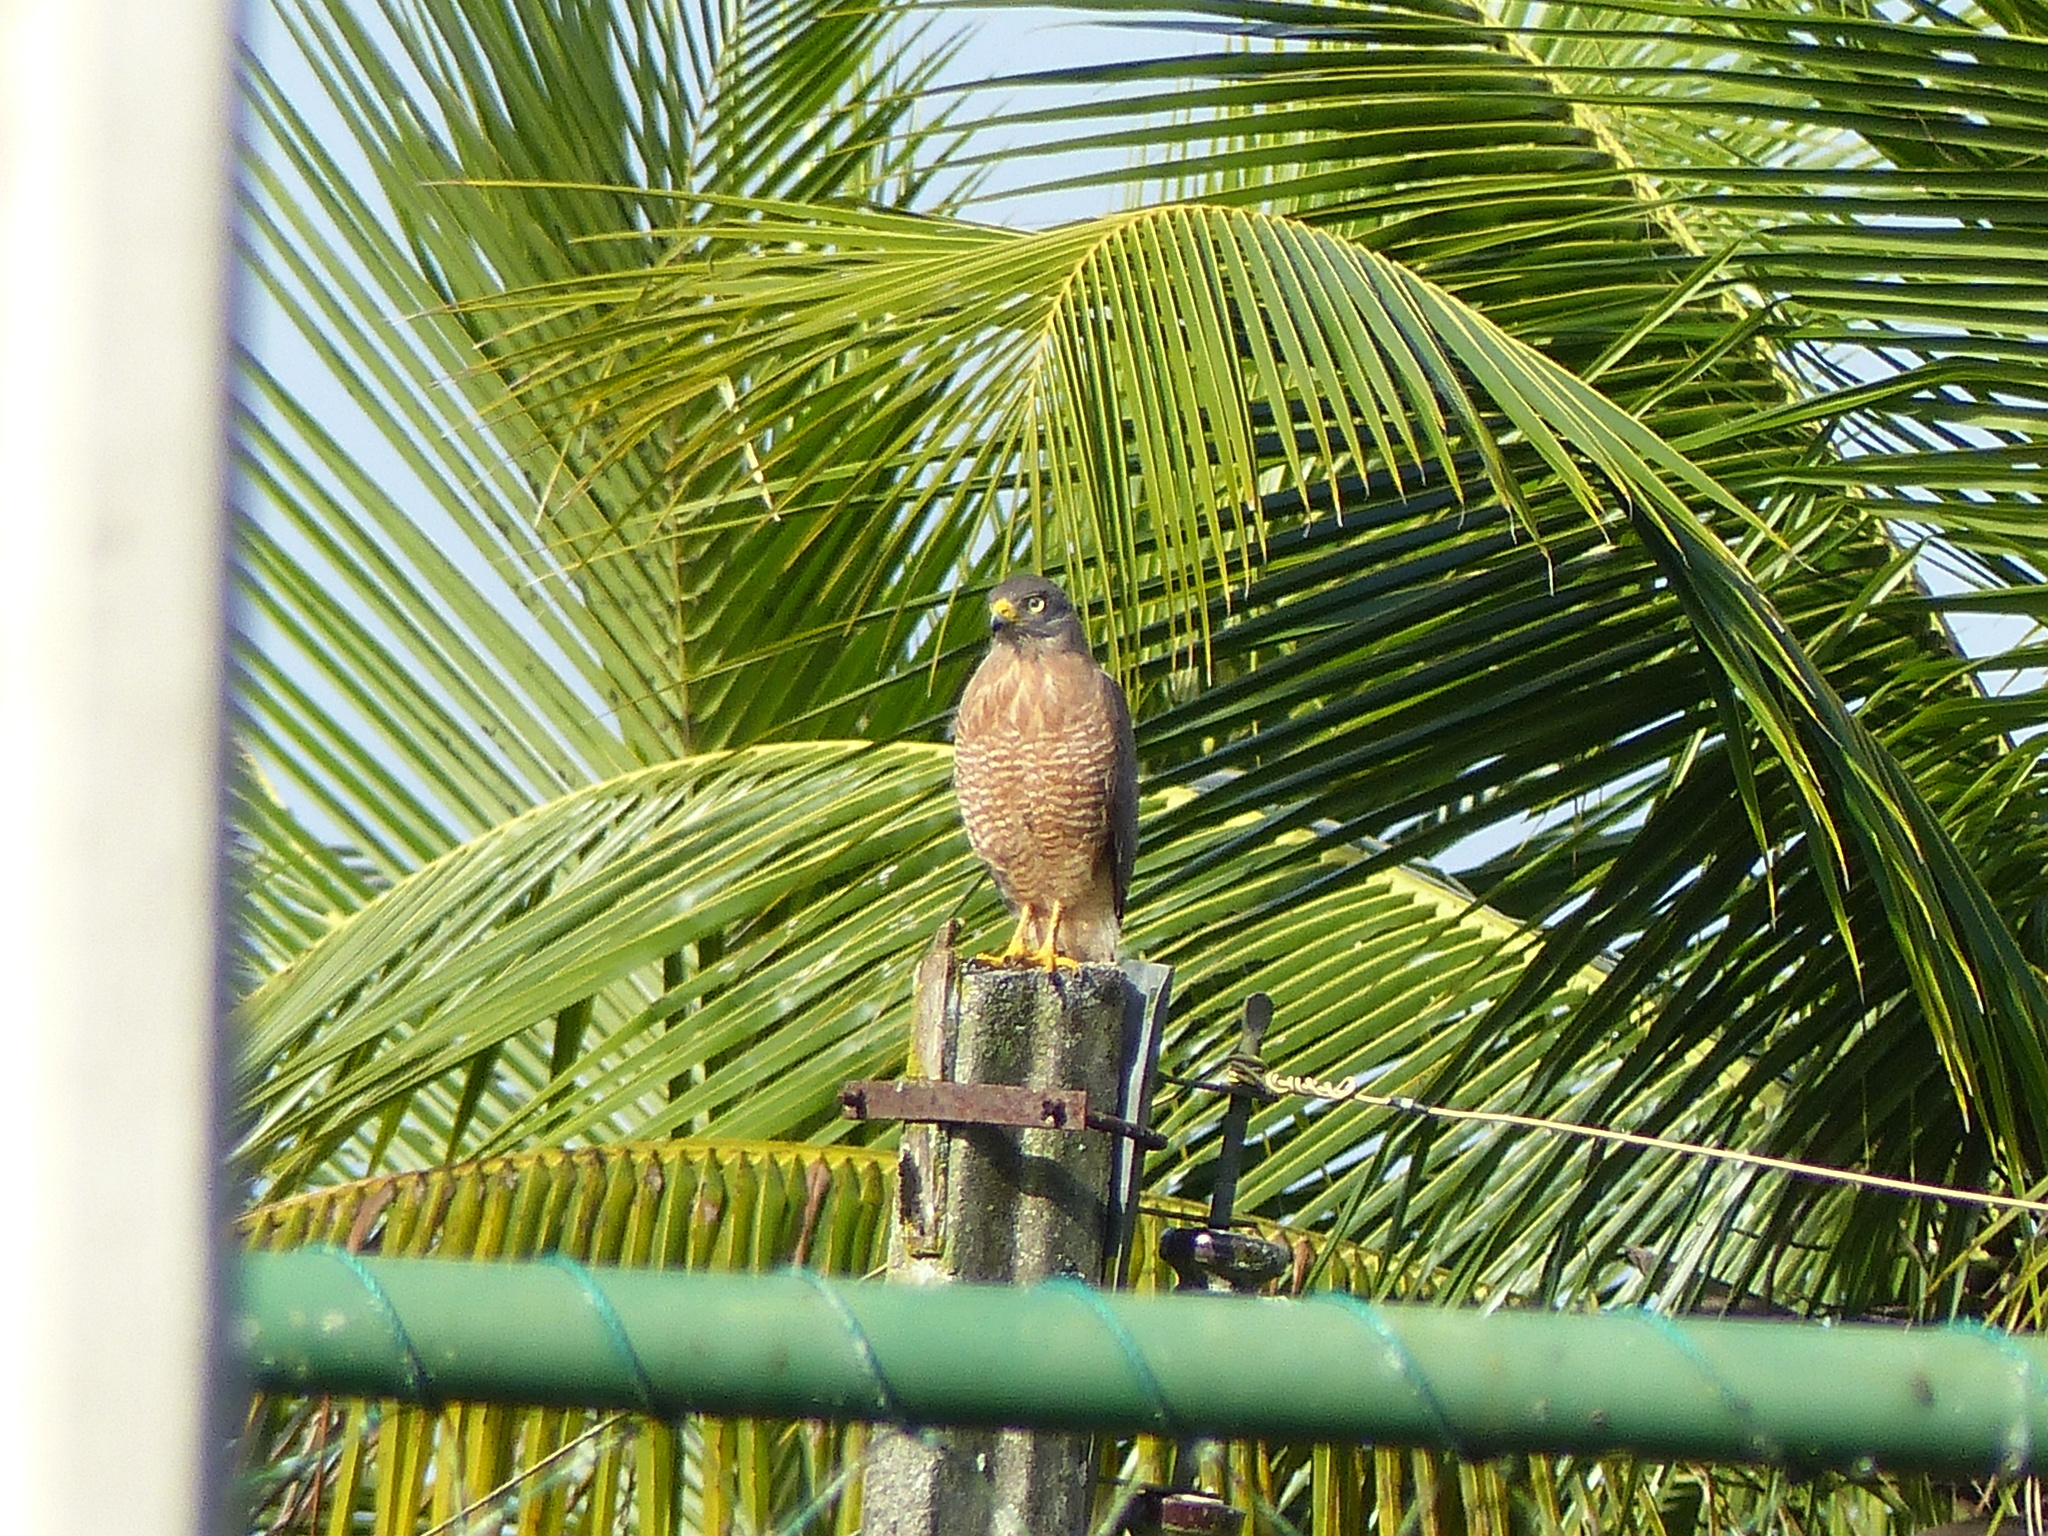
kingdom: Animalia
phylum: Chordata
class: Aves
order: Accipitriformes
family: Accipitridae
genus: Rupornis
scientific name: Rupornis magnirostris
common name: Roadside hawk
